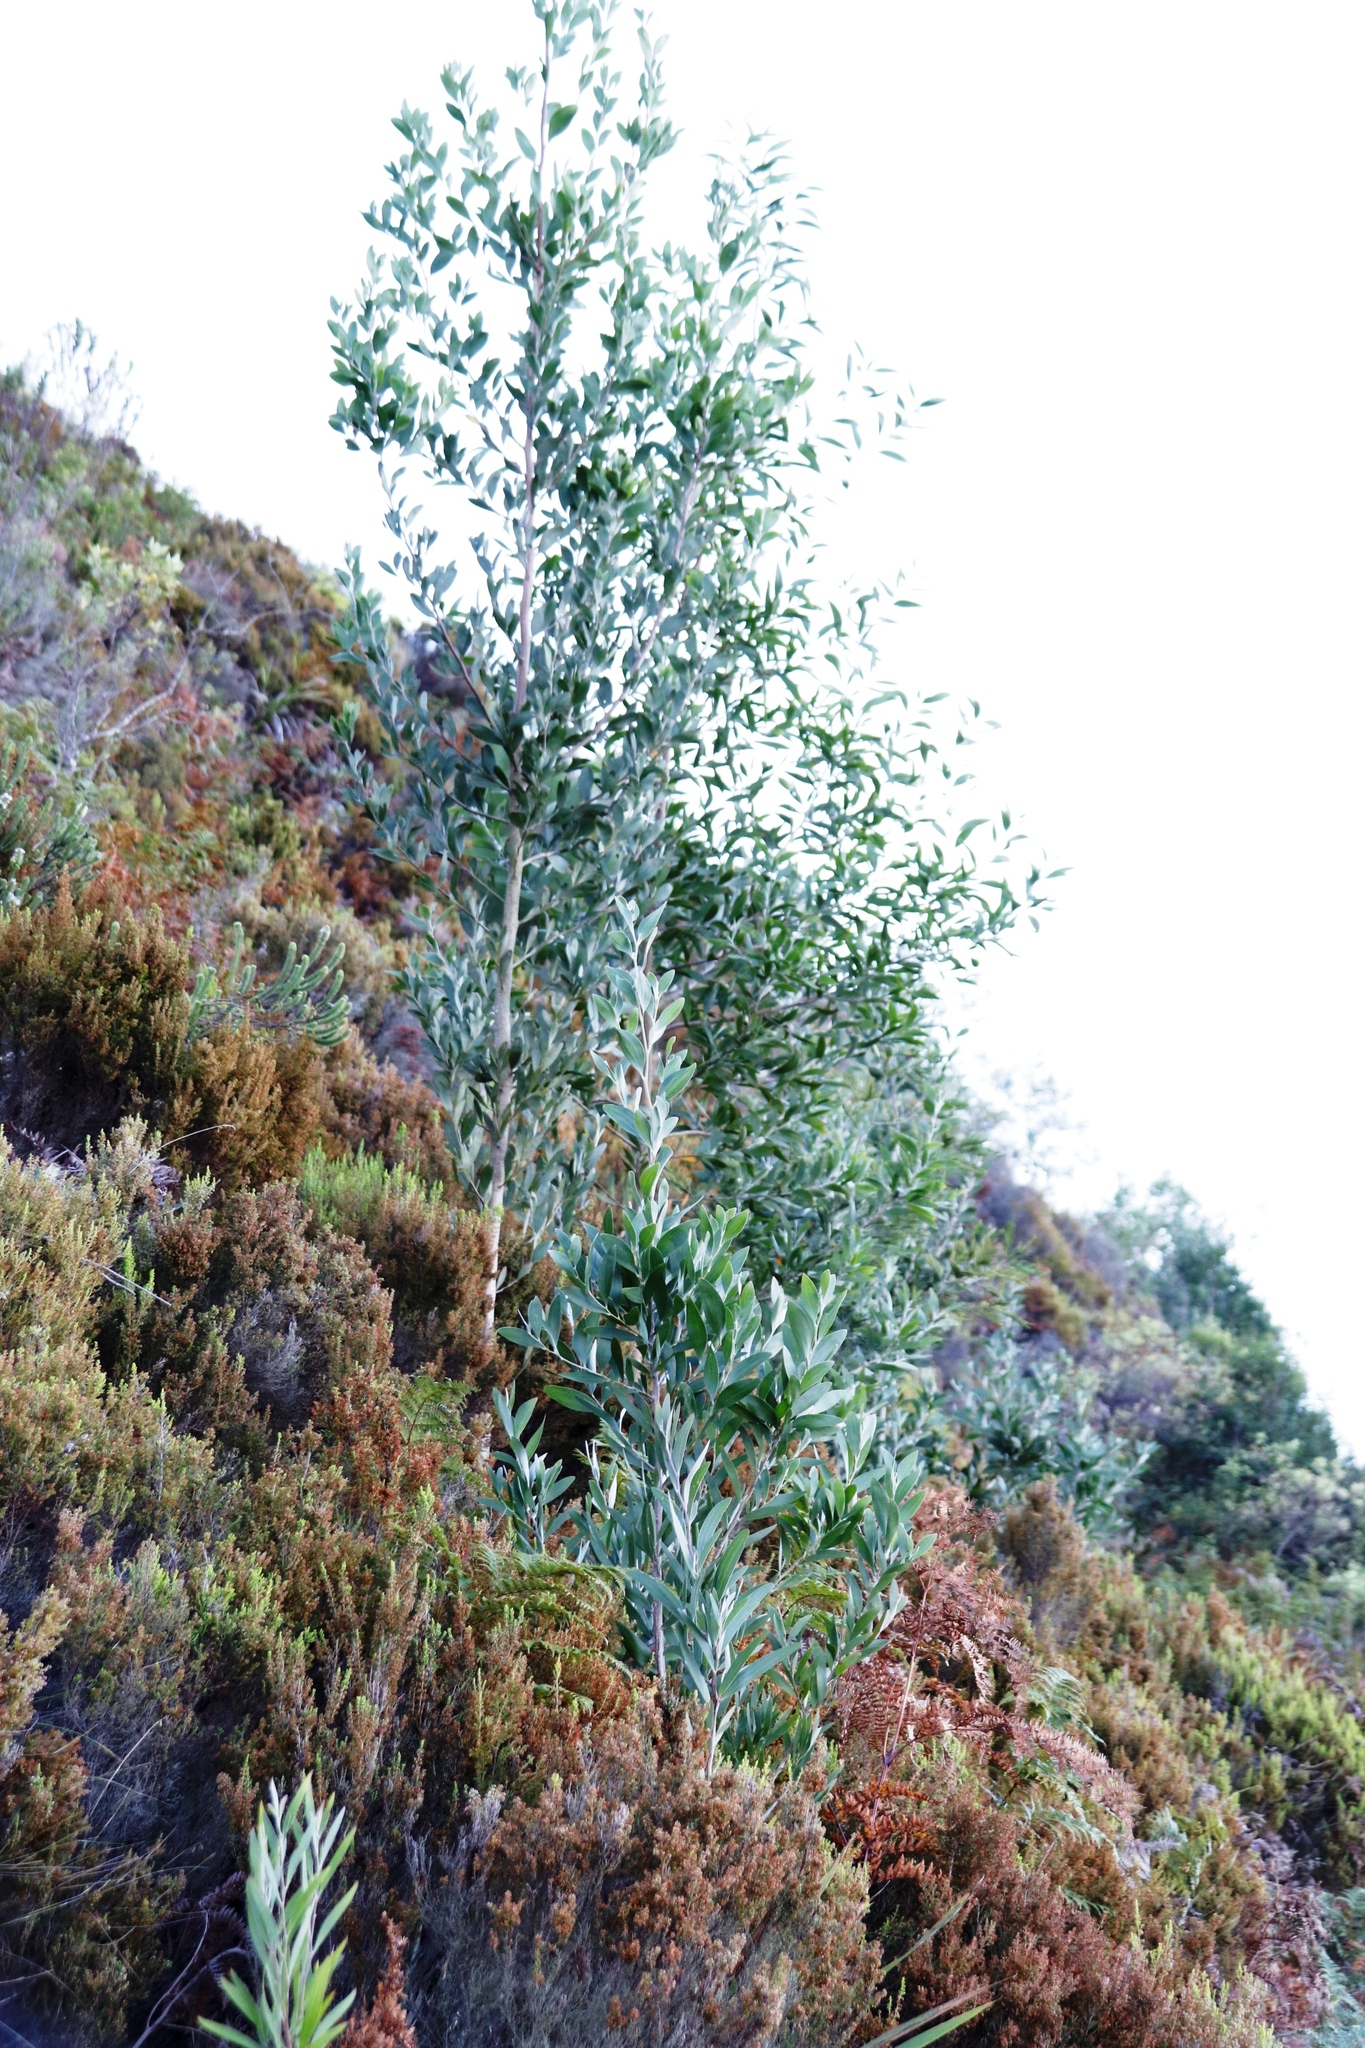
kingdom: Plantae
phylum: Tracheophyta
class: Magnoliopsida
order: Fabales
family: Fabaceae
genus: Acacia
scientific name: Acacia melanoxylon
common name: Blackwood
